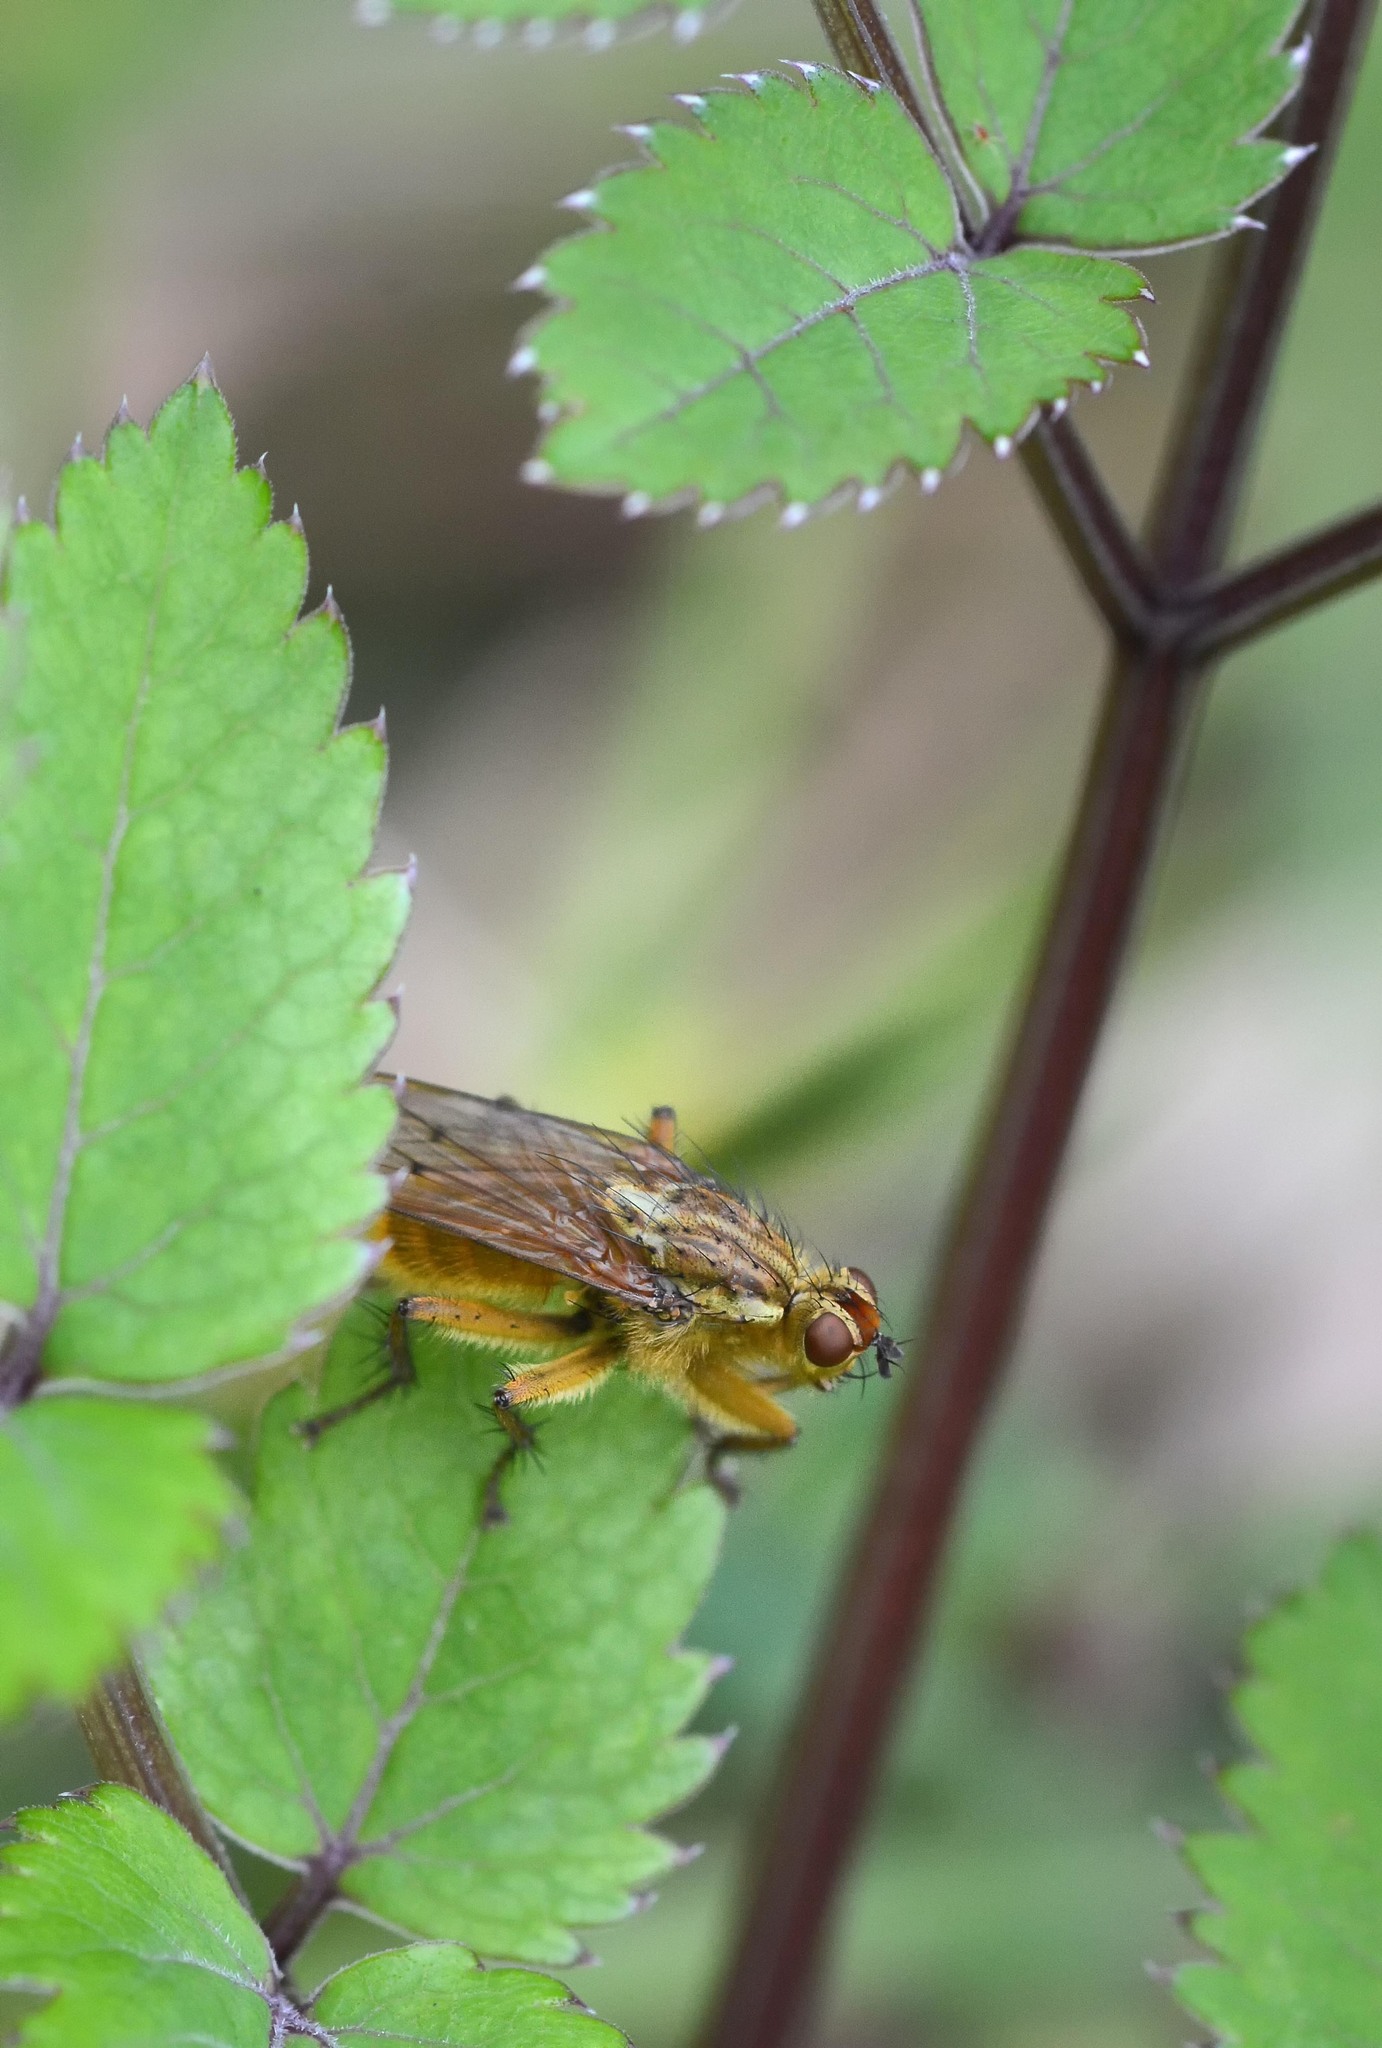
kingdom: Animalia
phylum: Arthropoda
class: Insecta
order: Diptera
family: Scathophagidae
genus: Scathophaga
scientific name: Scathophaga stercoraria
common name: Yellow dung fly
